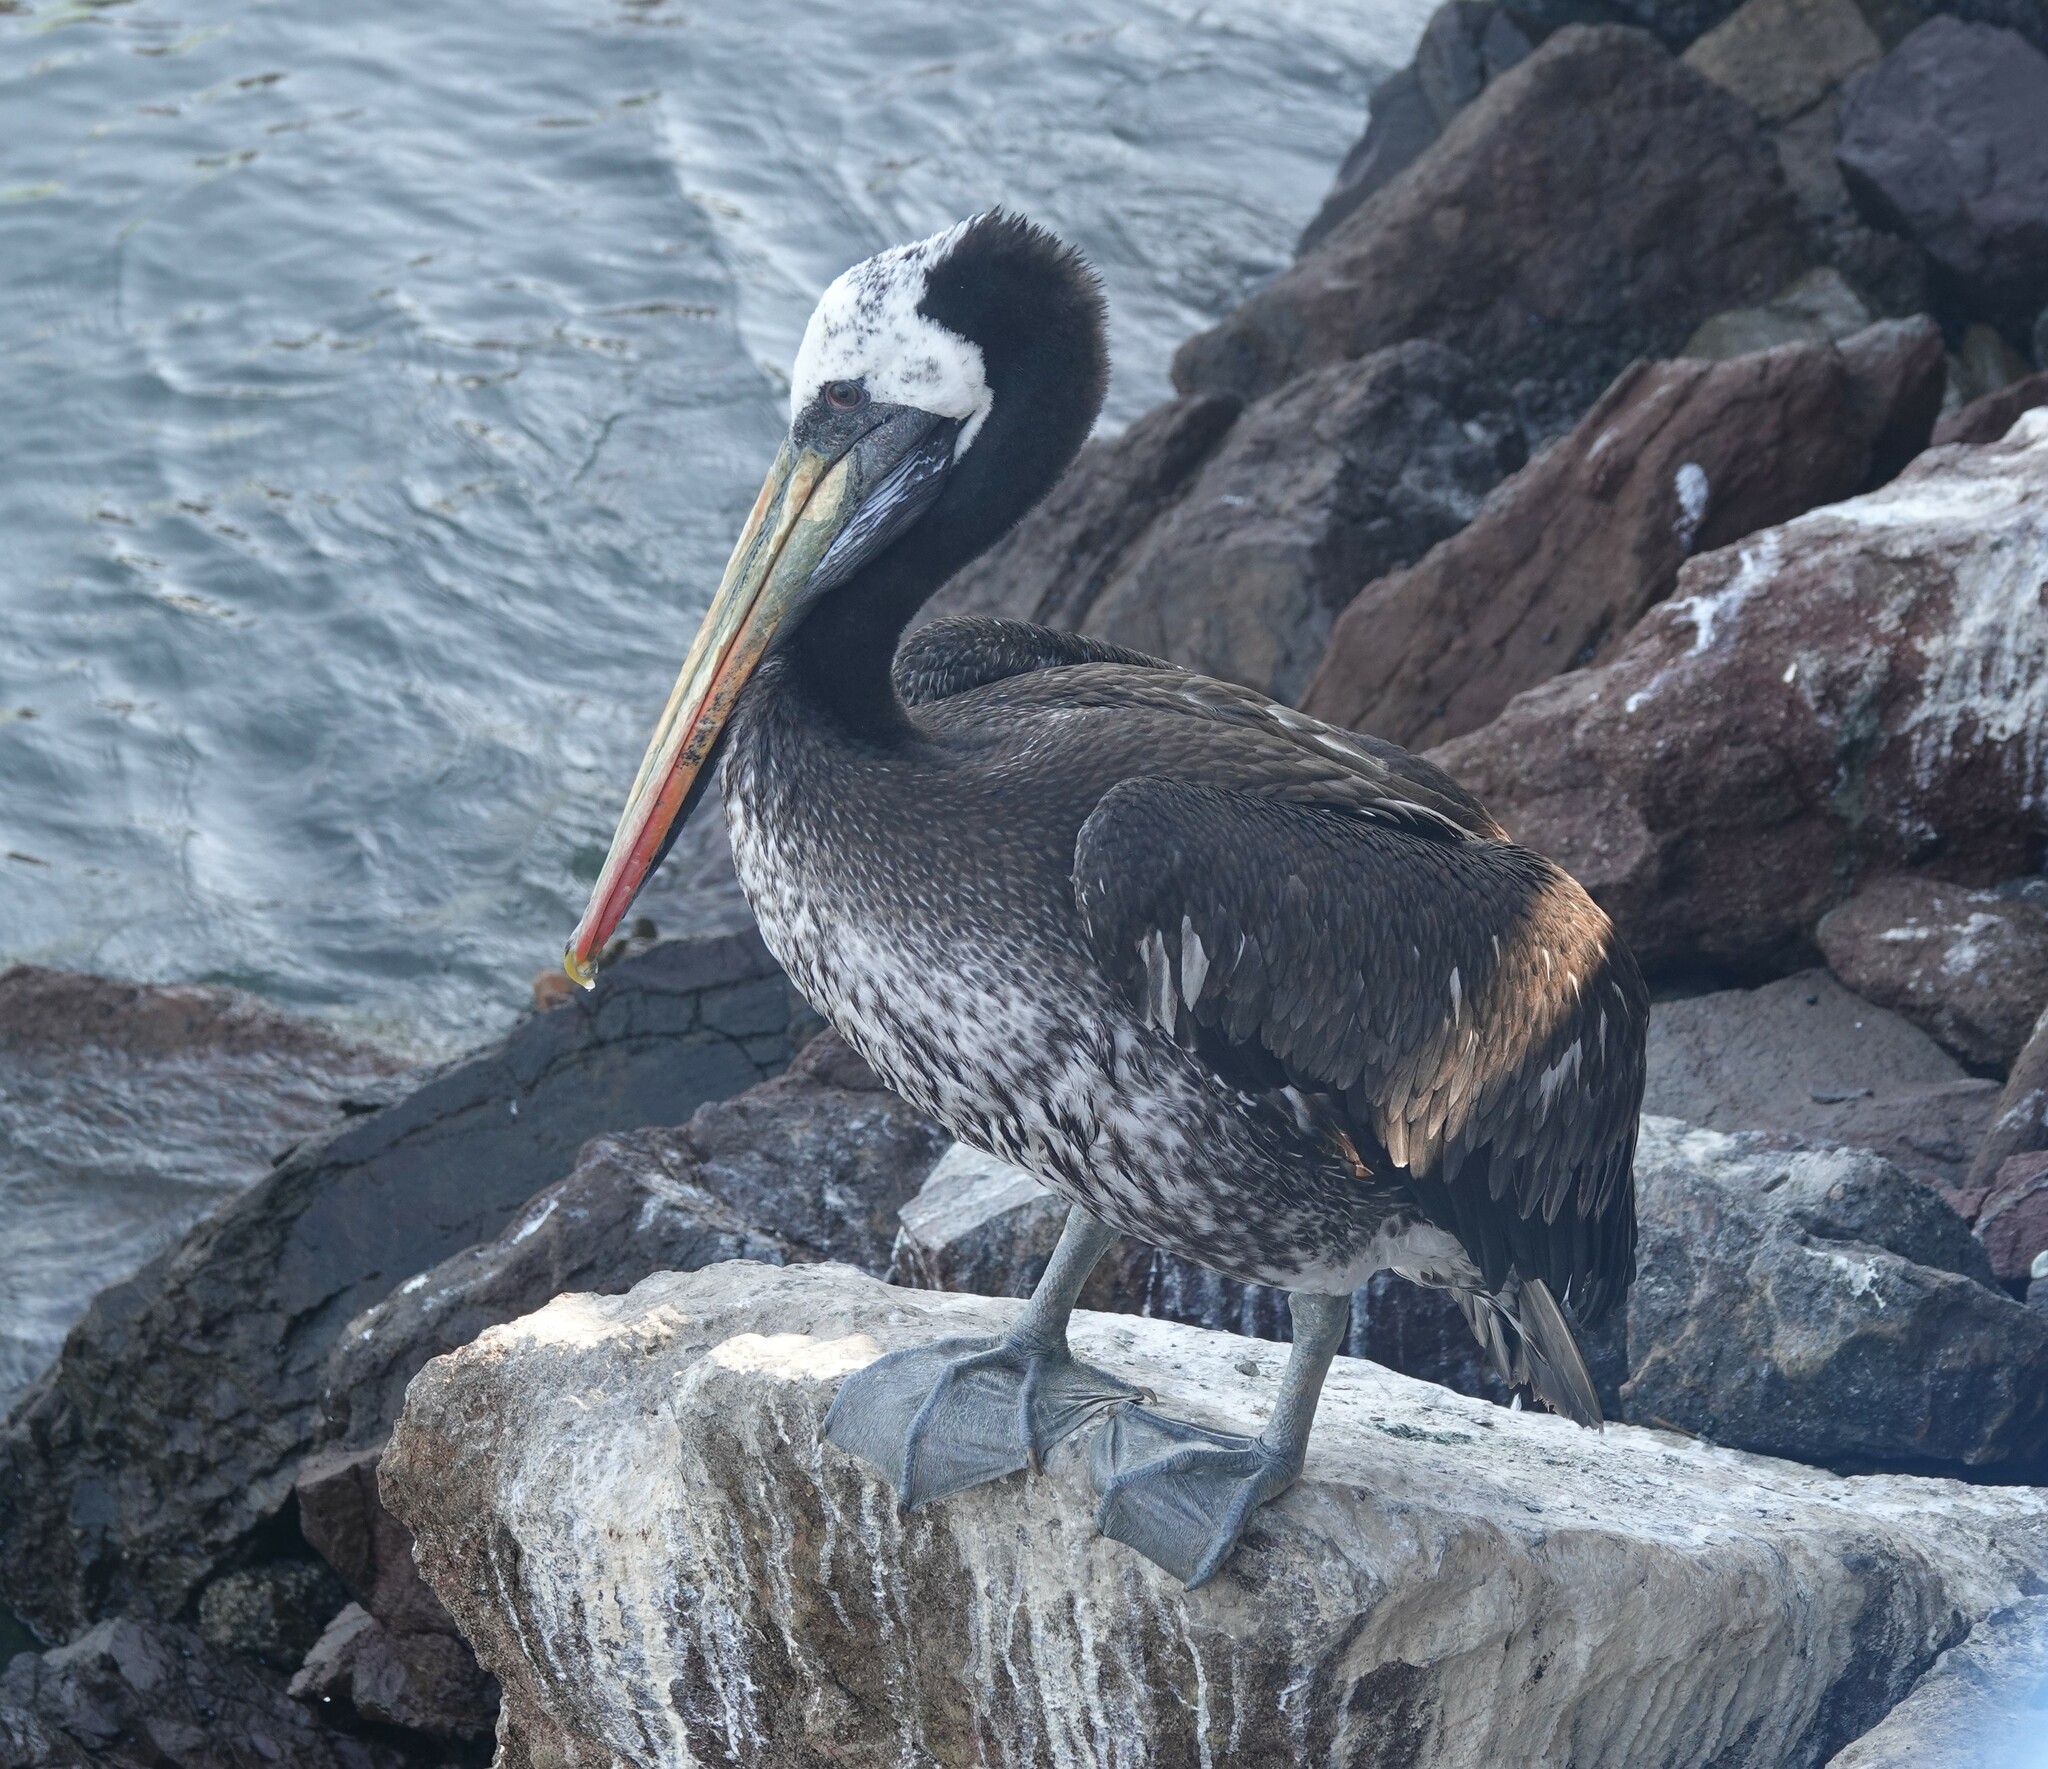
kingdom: Animalia
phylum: Chordata
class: Aves
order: Pelecaniformes
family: Pelecanidae
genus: Pelecanus
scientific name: Pelecanus thagus
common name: Peruvian pelican
